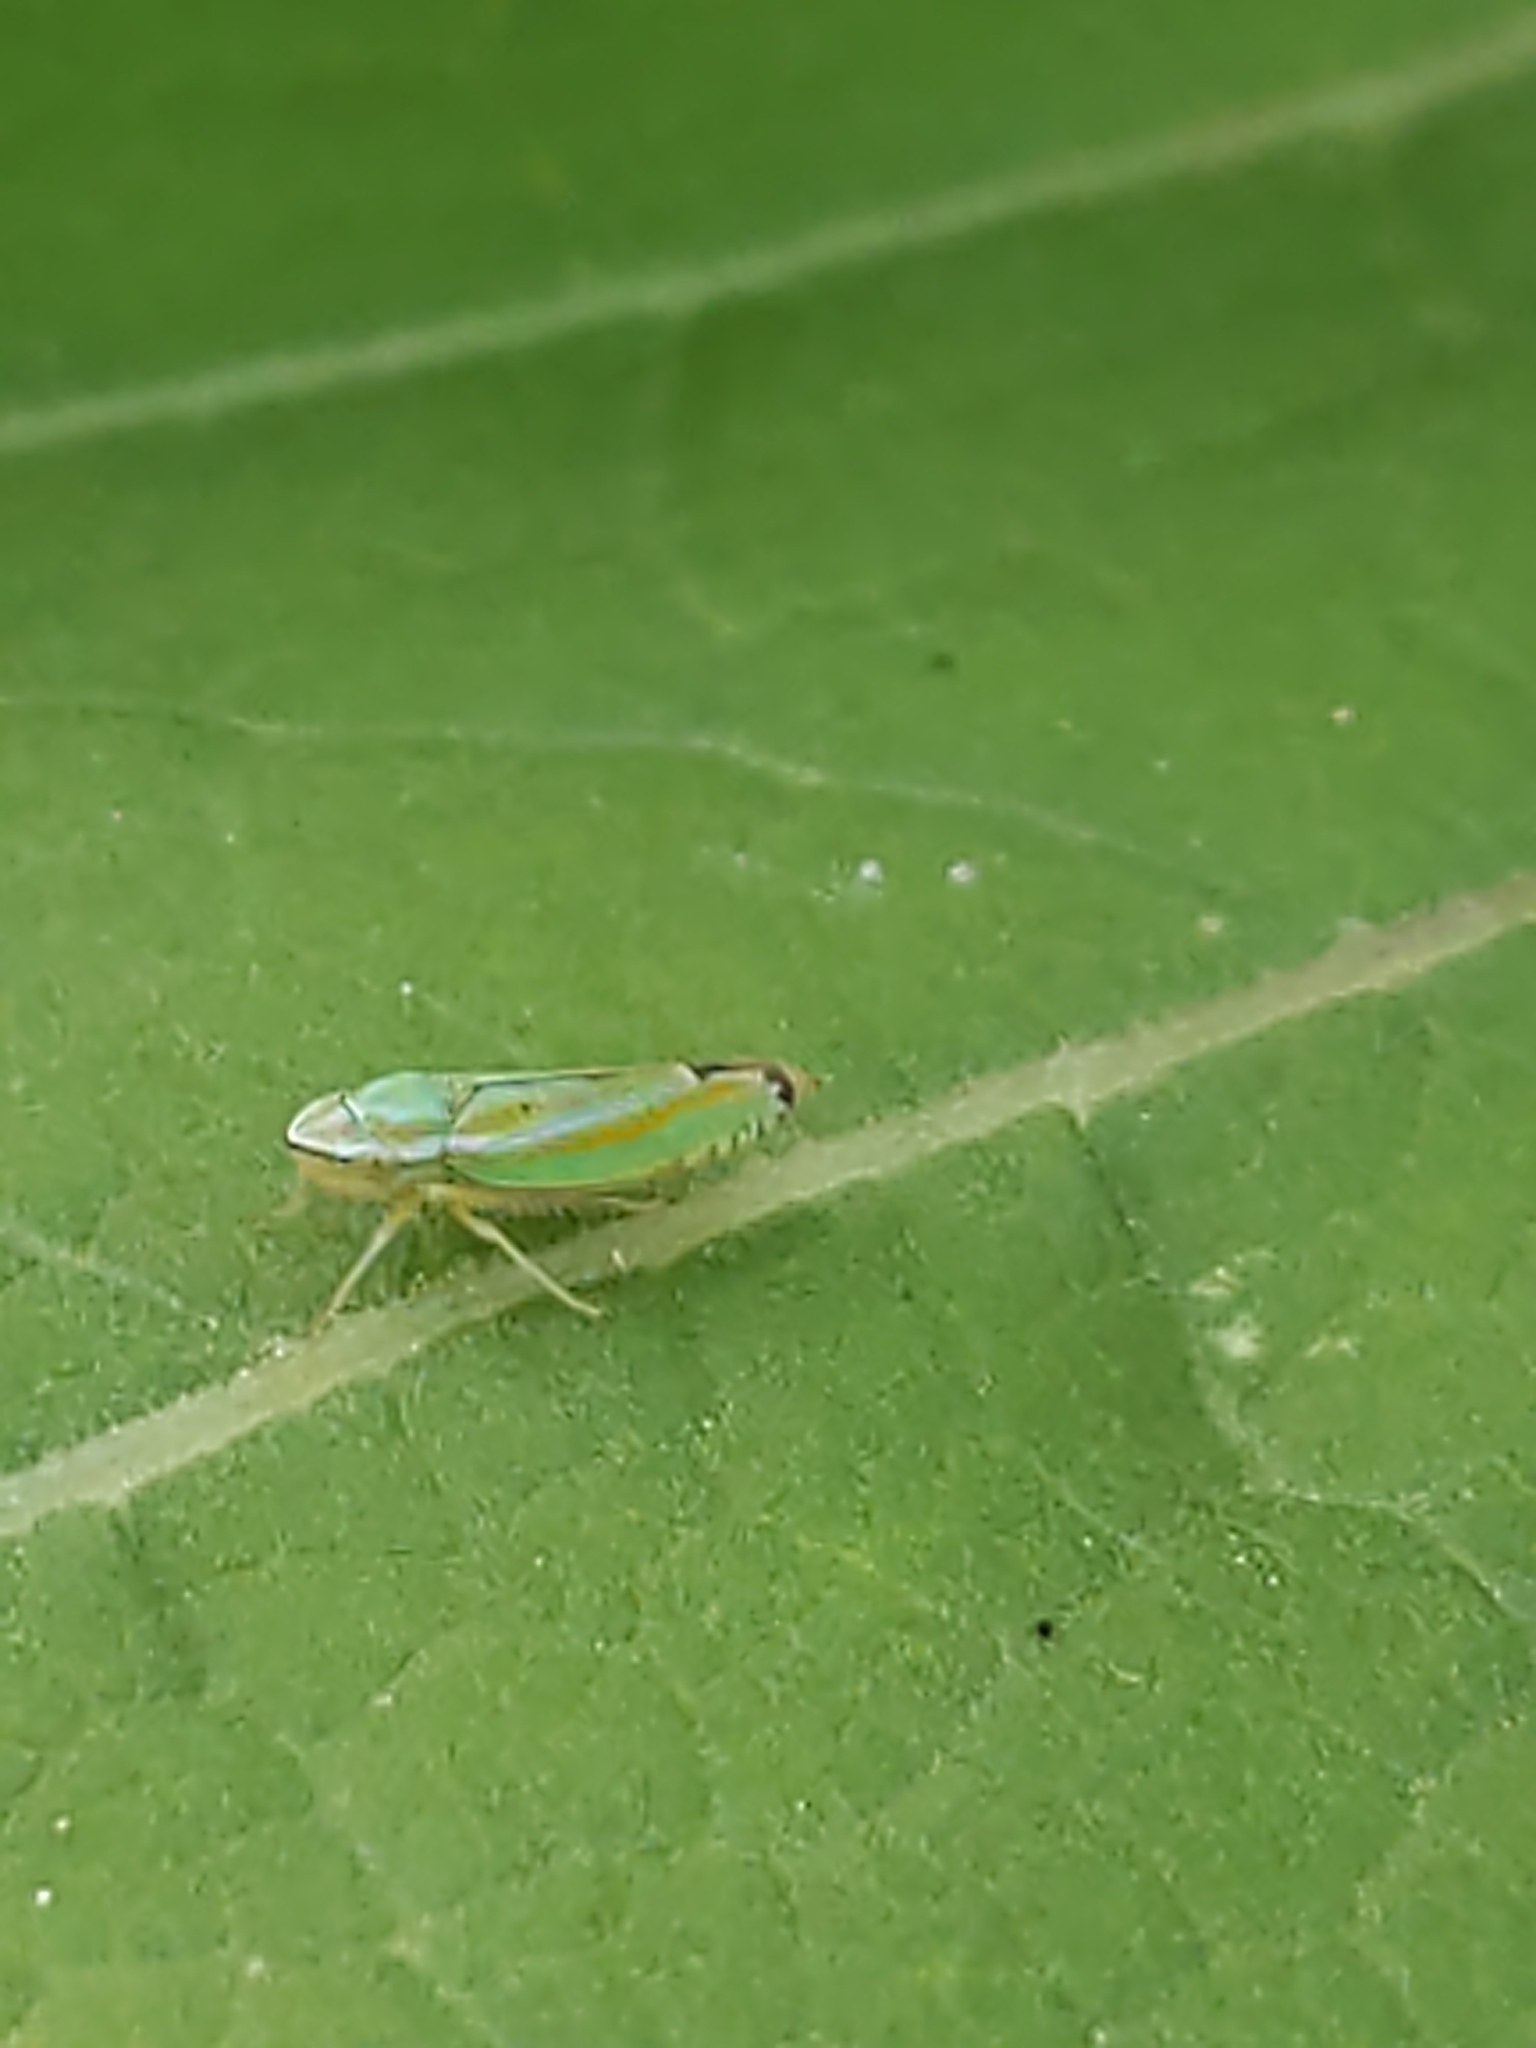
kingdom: Animalia
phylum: Arthropoda
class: Insecta
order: Hemiptera
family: Cicadellidae
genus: Graphocephala
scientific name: Graphocephala versuta
